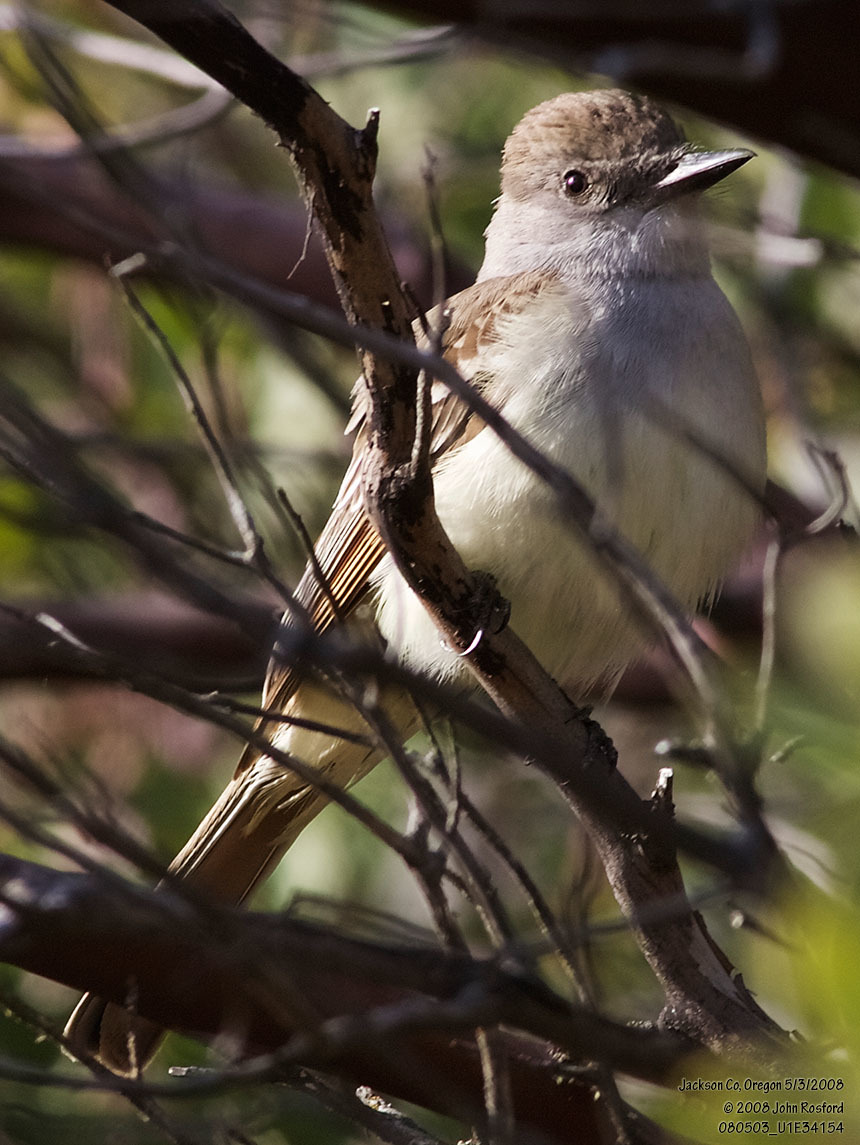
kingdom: Animalia
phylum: Chordata
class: Aves
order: Passeriformes
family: Tyrannidae
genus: Myiarchus
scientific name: Myiarchus cinerascens
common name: Ash-throated flycatcher
